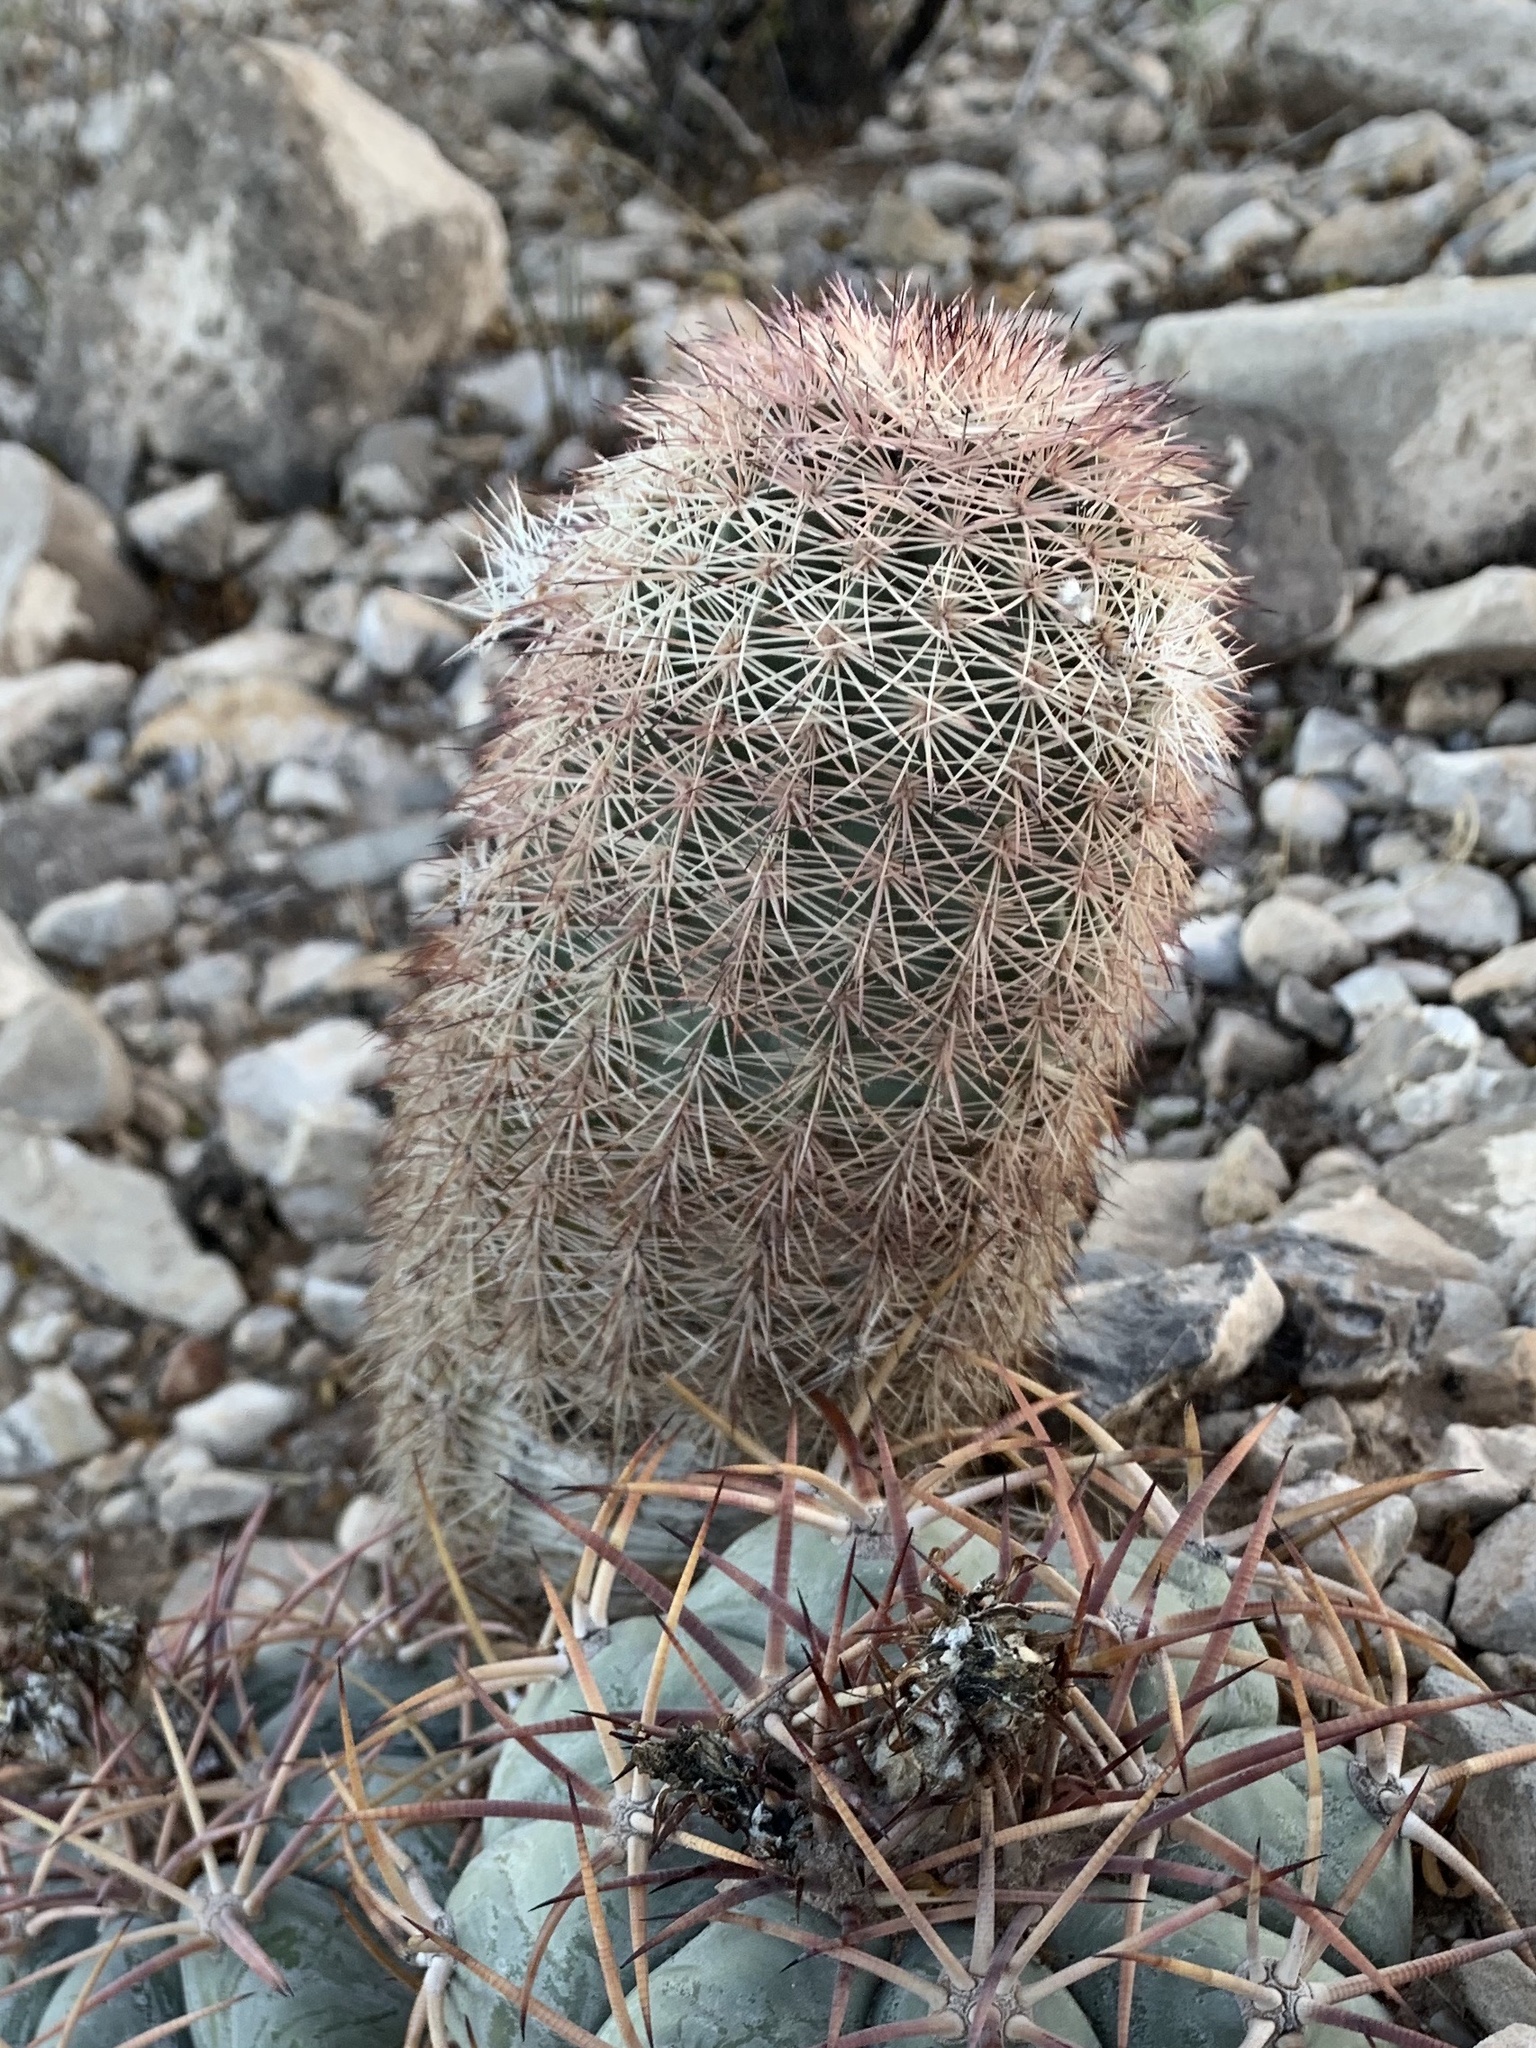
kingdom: Plantae
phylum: Tracheophyta
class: Magnoliopsida
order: Caryophyllales
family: Cactaceae
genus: Echinocereus
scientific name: Echinocereus dasyacanthus
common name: Spiny hedgehog cactus
